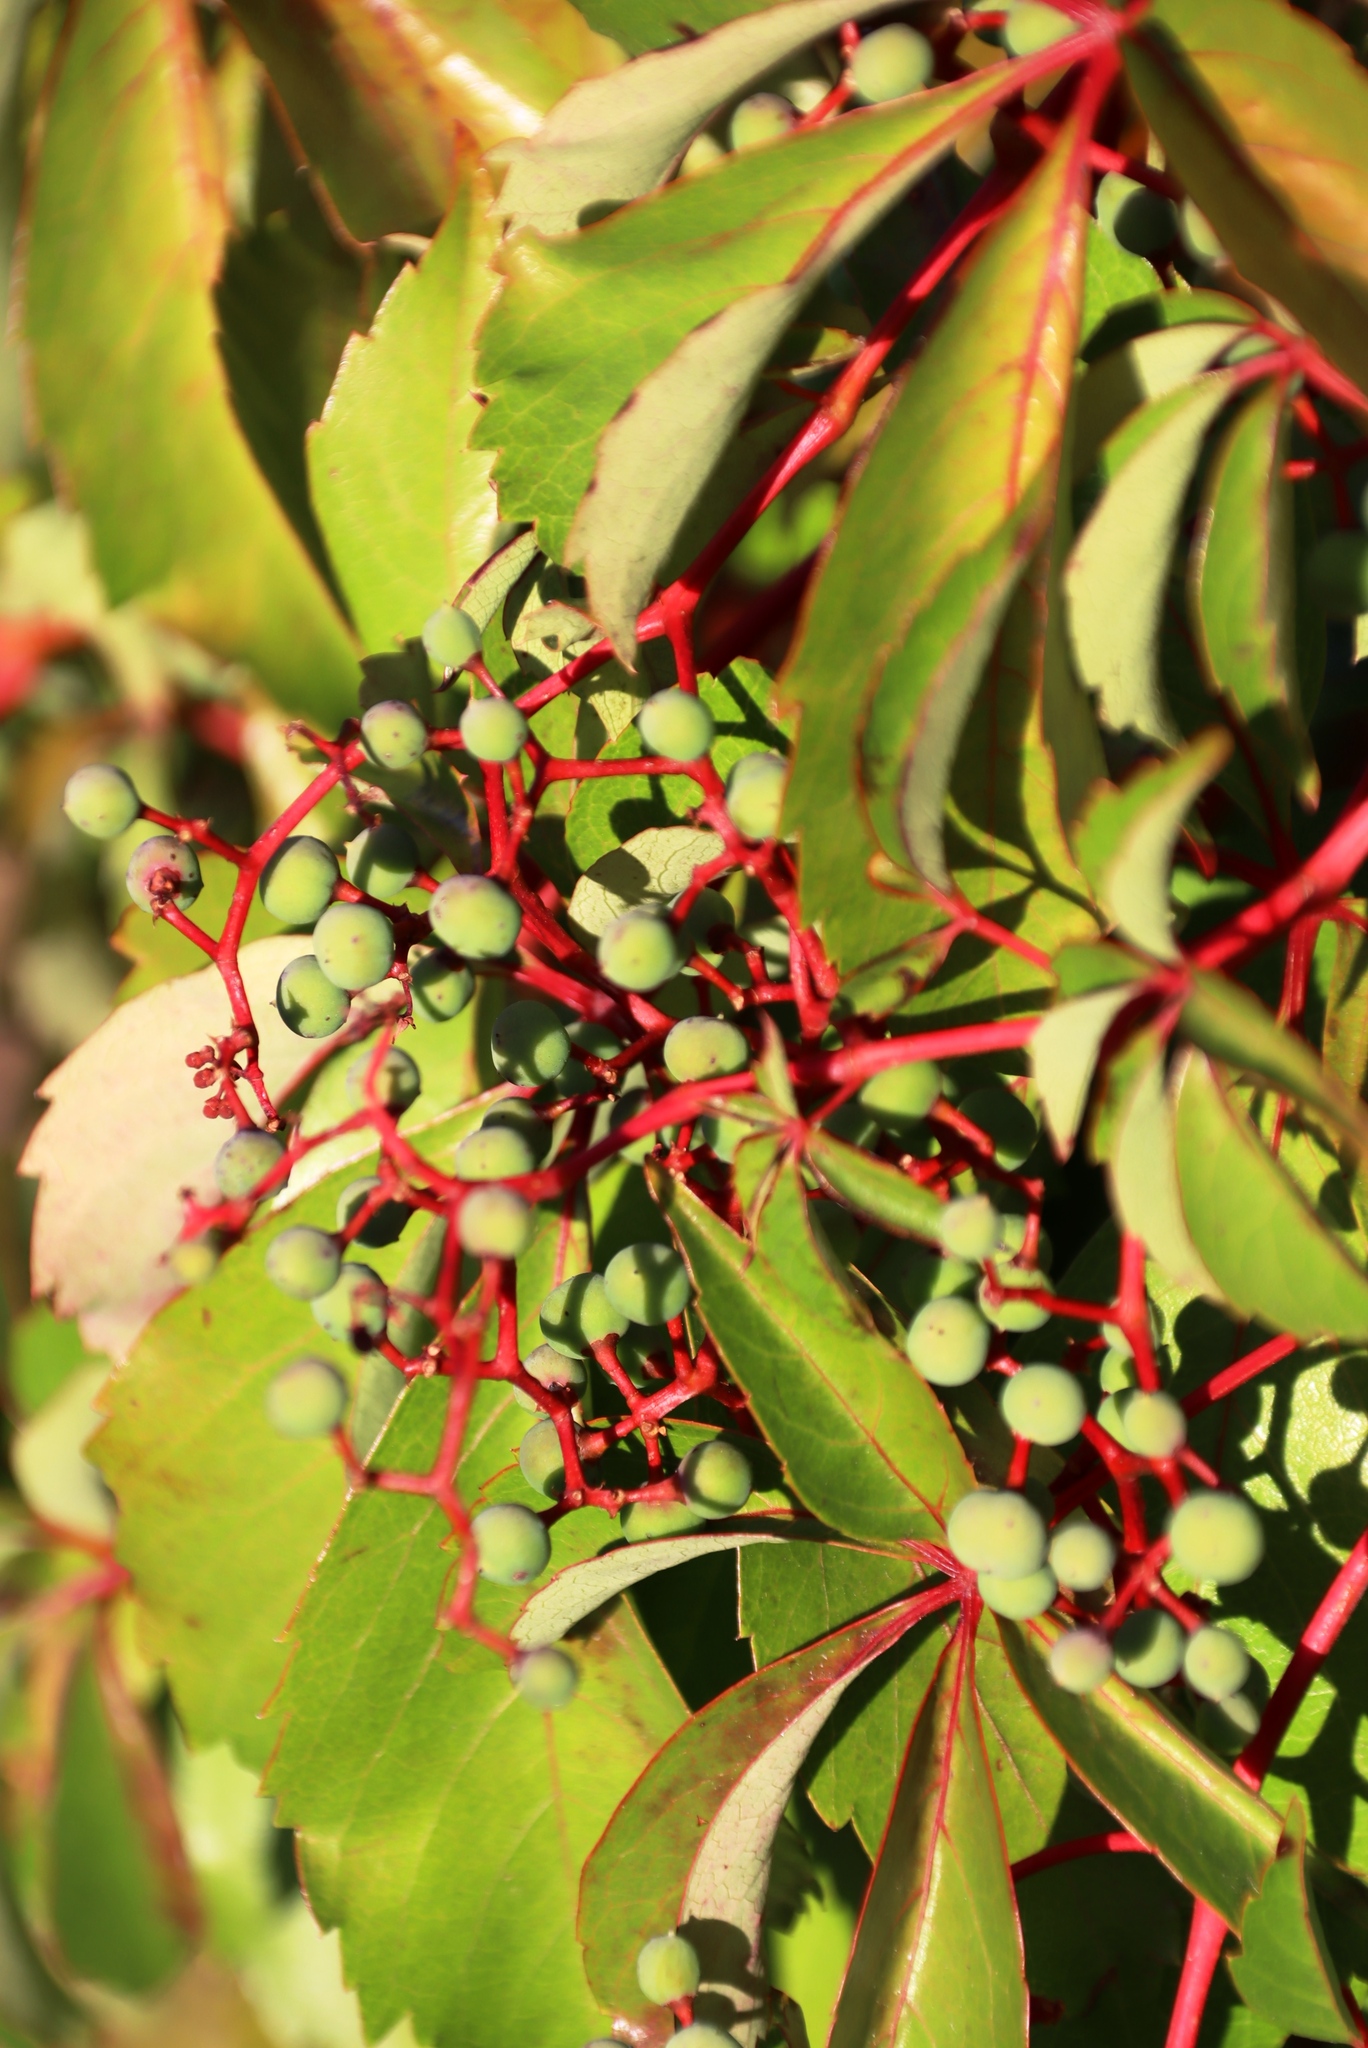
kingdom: Plantae
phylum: Tracheophyta
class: Magnoliopsida
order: Vitales
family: Vitaceae
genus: Parthenocissus
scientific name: Parthenocissus quinquefolia
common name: Virginia-creeper
